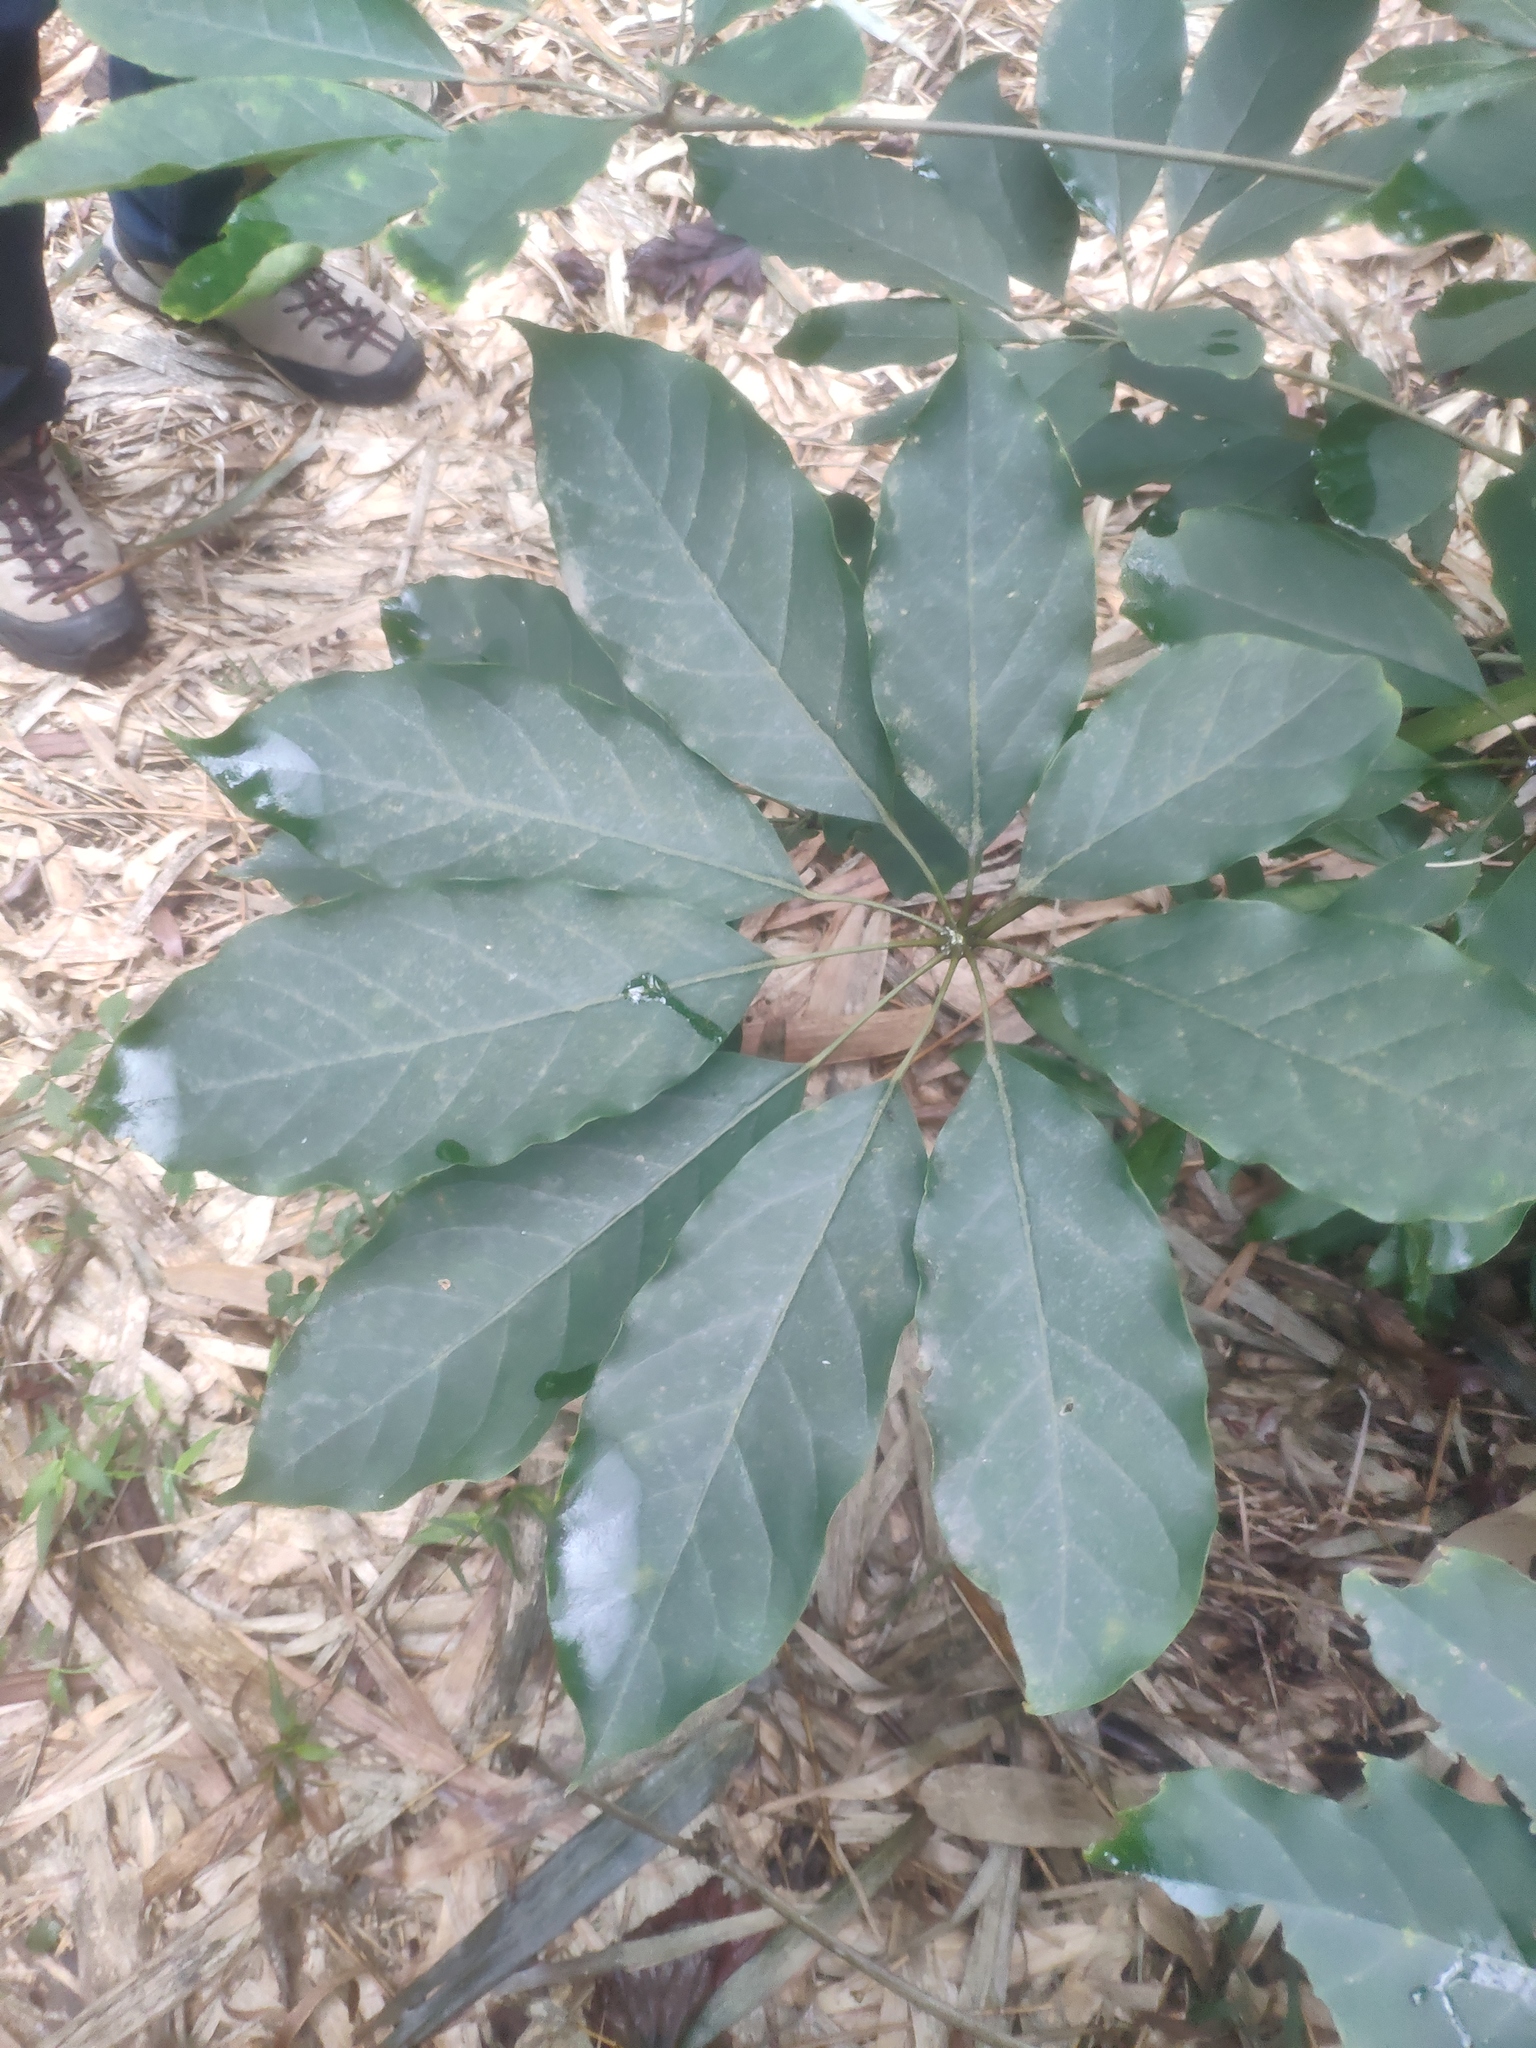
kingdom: Plantae
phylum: Tracheophyta
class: Magnoliopsida
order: Apiales
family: Araliaceae
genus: Heptapleurum
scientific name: Heptapleurum heptaphyllum
